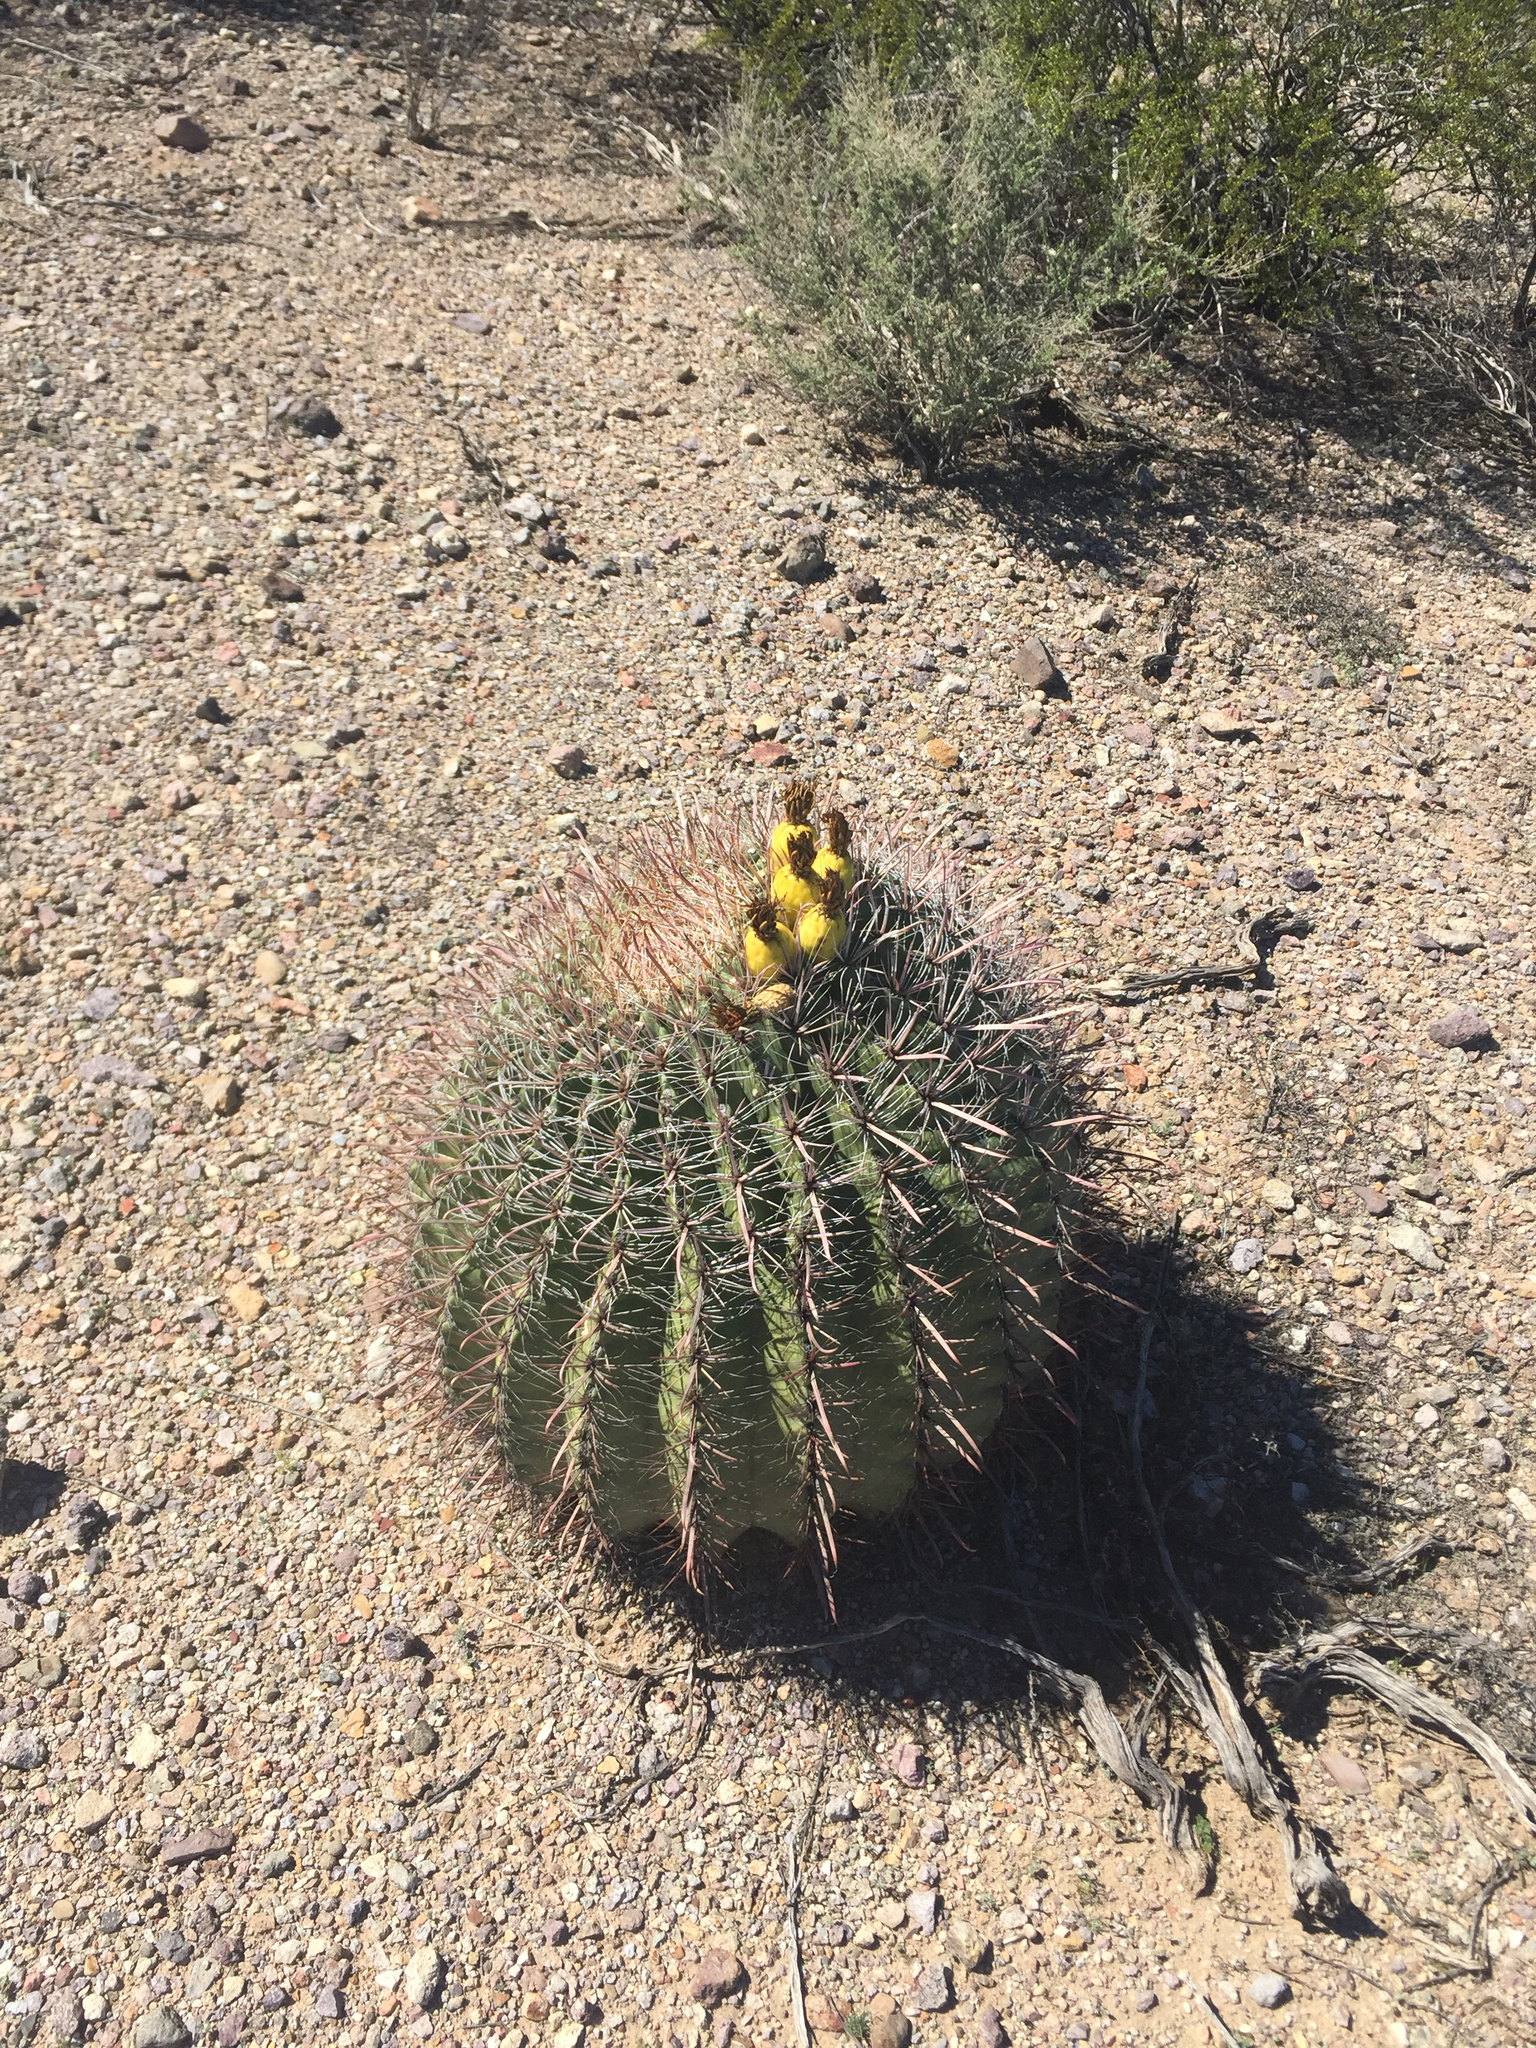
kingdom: Plantae
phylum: Tracheophyta
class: Magnoliopsida
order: Caryophyllales
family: Cactaceae
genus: Ferocactus
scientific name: Ferocactus wislizeni
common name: Candy barrel cactus
